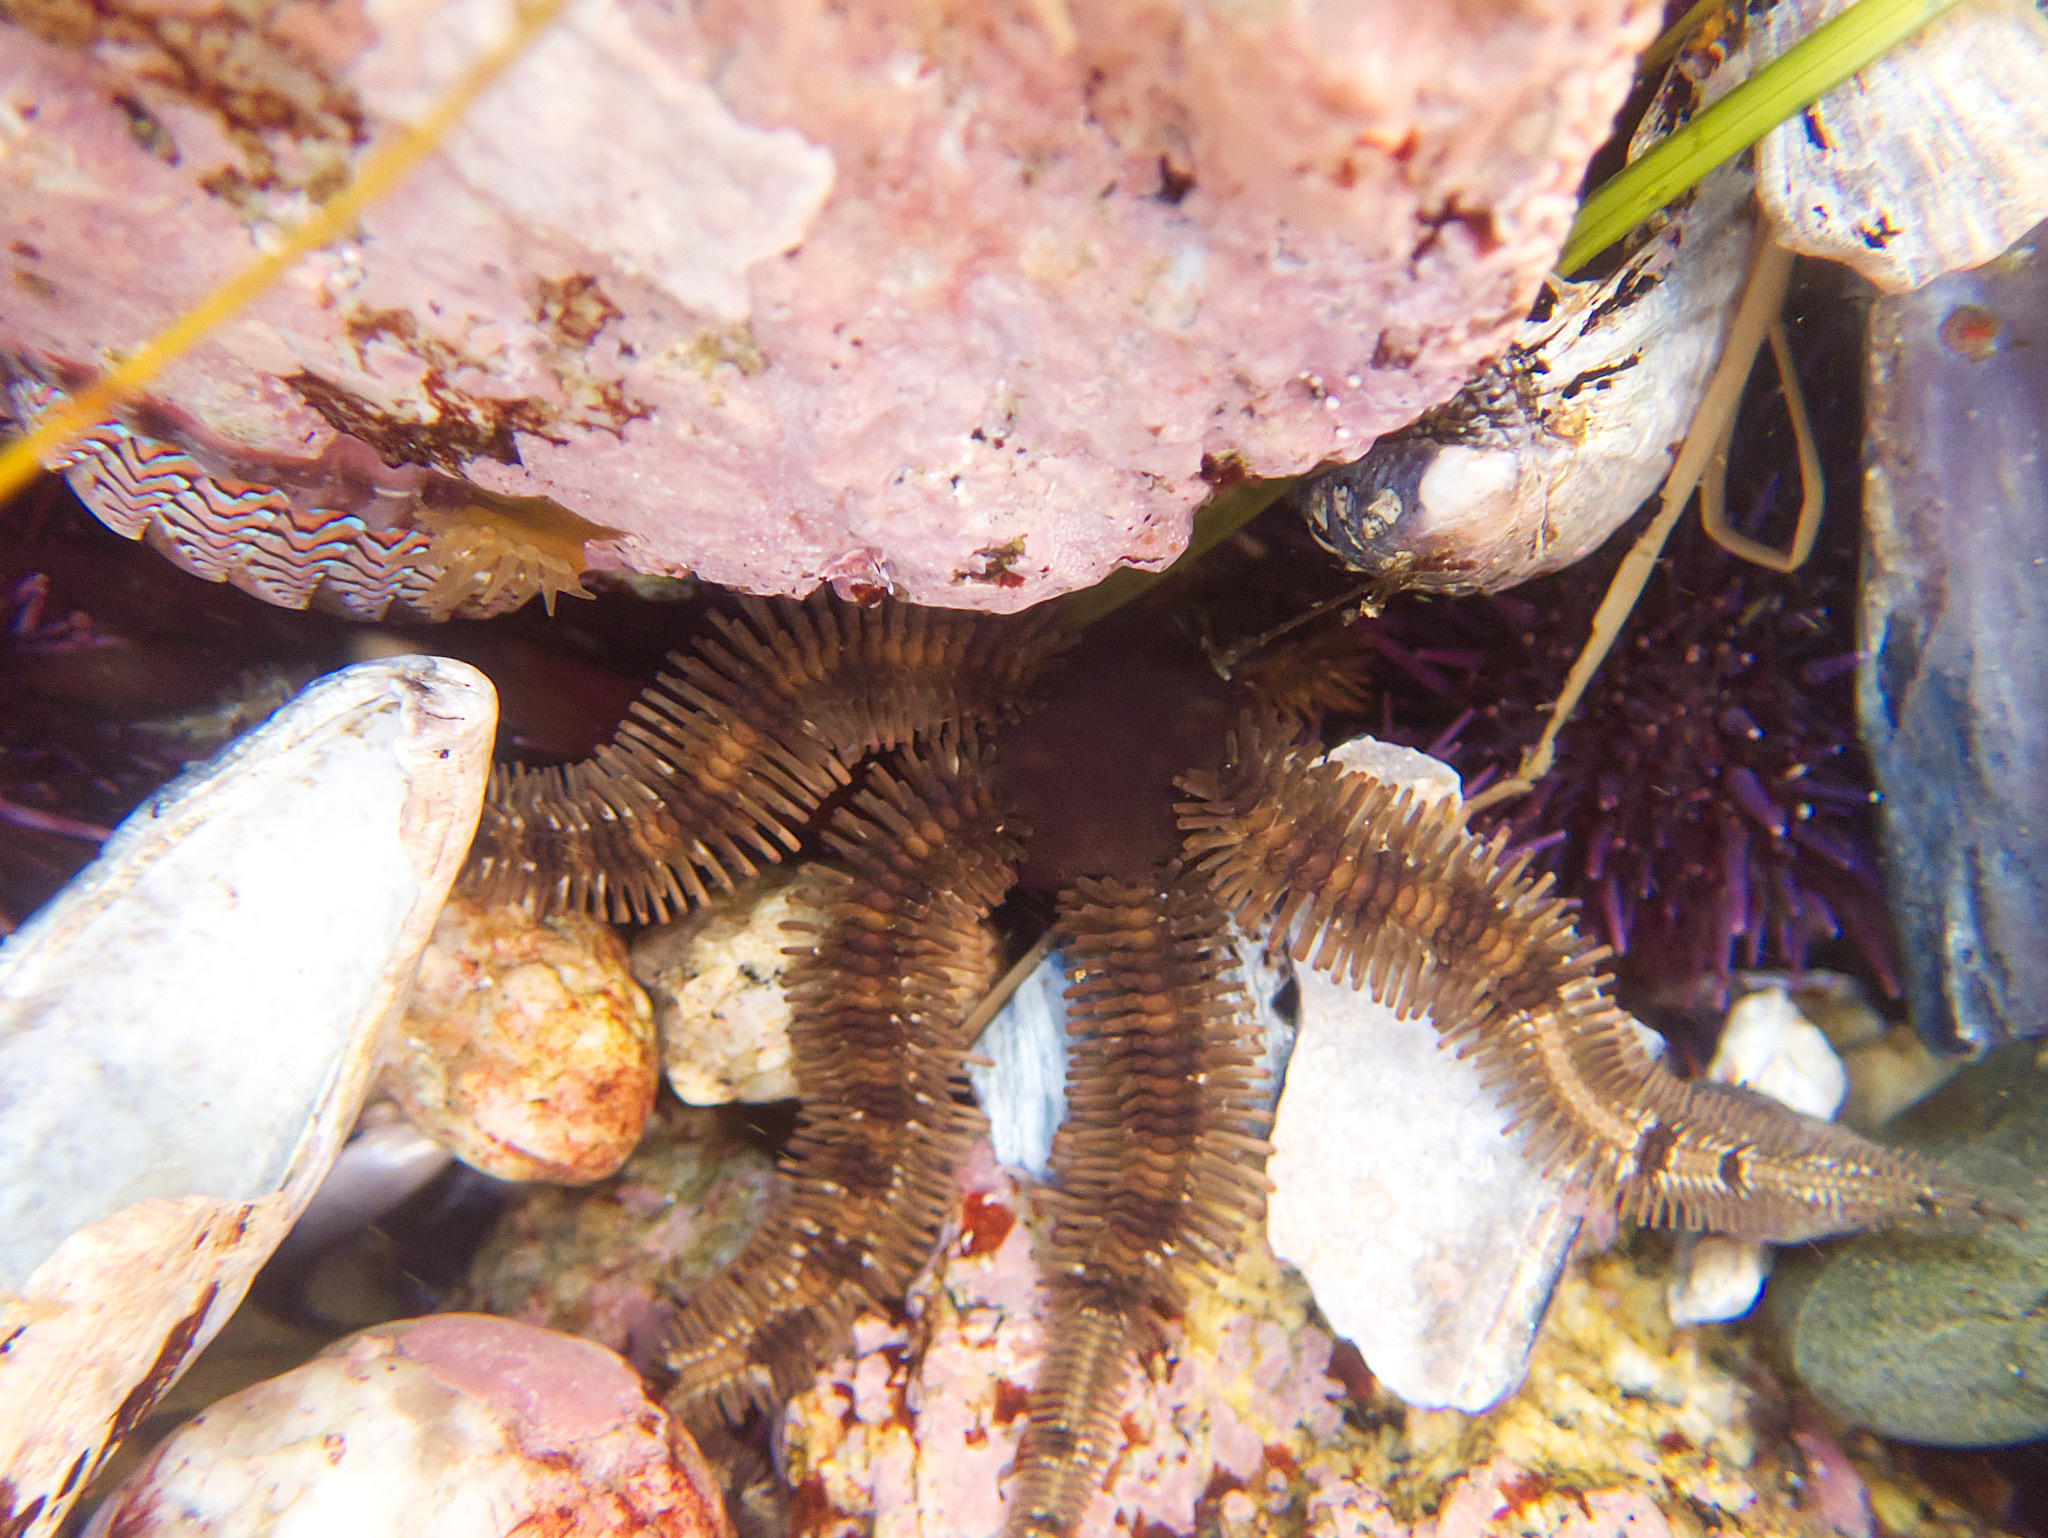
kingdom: Animalia
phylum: Echinodermata
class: Ophiuroidea
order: Ophiacanthida
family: Ophiopteridae
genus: Ophiopteris
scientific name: Ophiopteris papillosa
